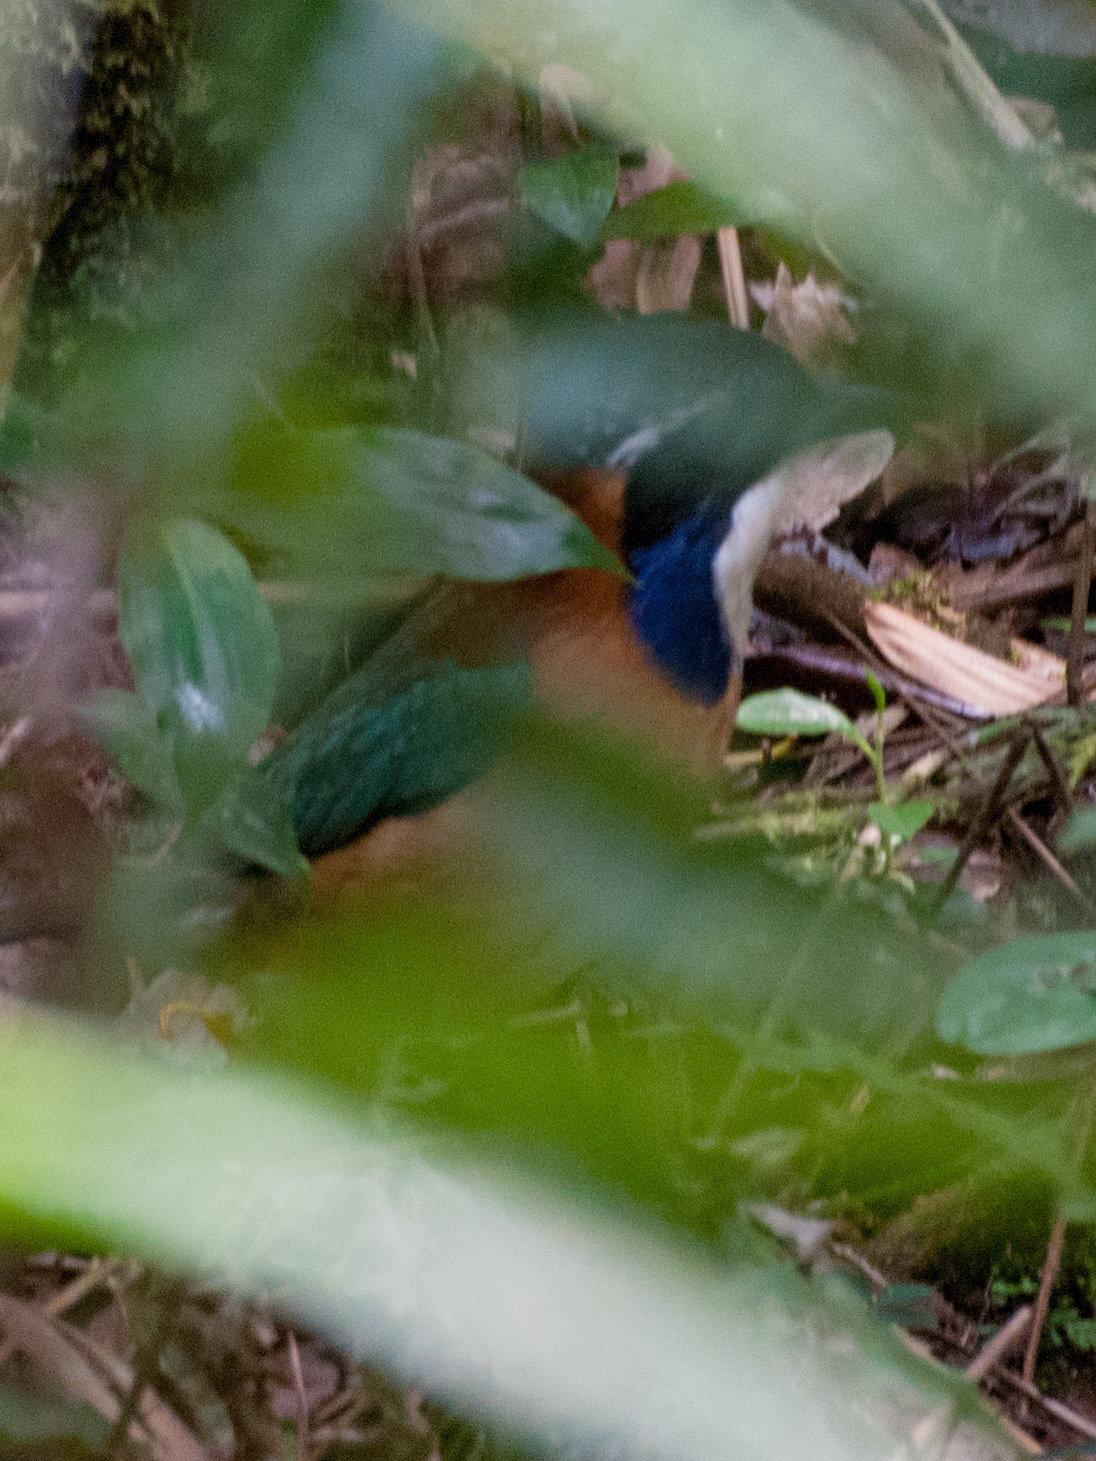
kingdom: Animalia
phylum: Chordata
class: Aves
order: Coraciiformes
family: Brachypteraciidae
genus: Atelornis
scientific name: Atelornis pittoides
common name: Pitta-like ground-roller
